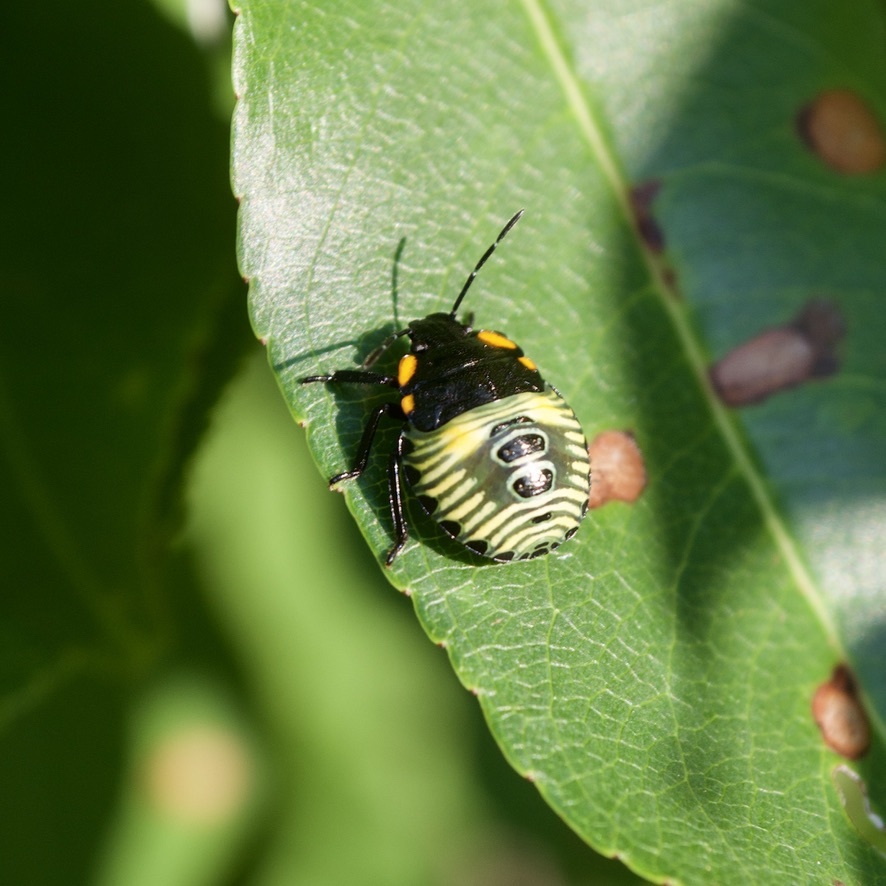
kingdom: Animalia
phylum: Arthropoda
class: Insecta
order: Hemiptera
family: Pentatomidae
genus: Chinavia
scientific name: Chinavia hilaris
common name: Green stink bug
